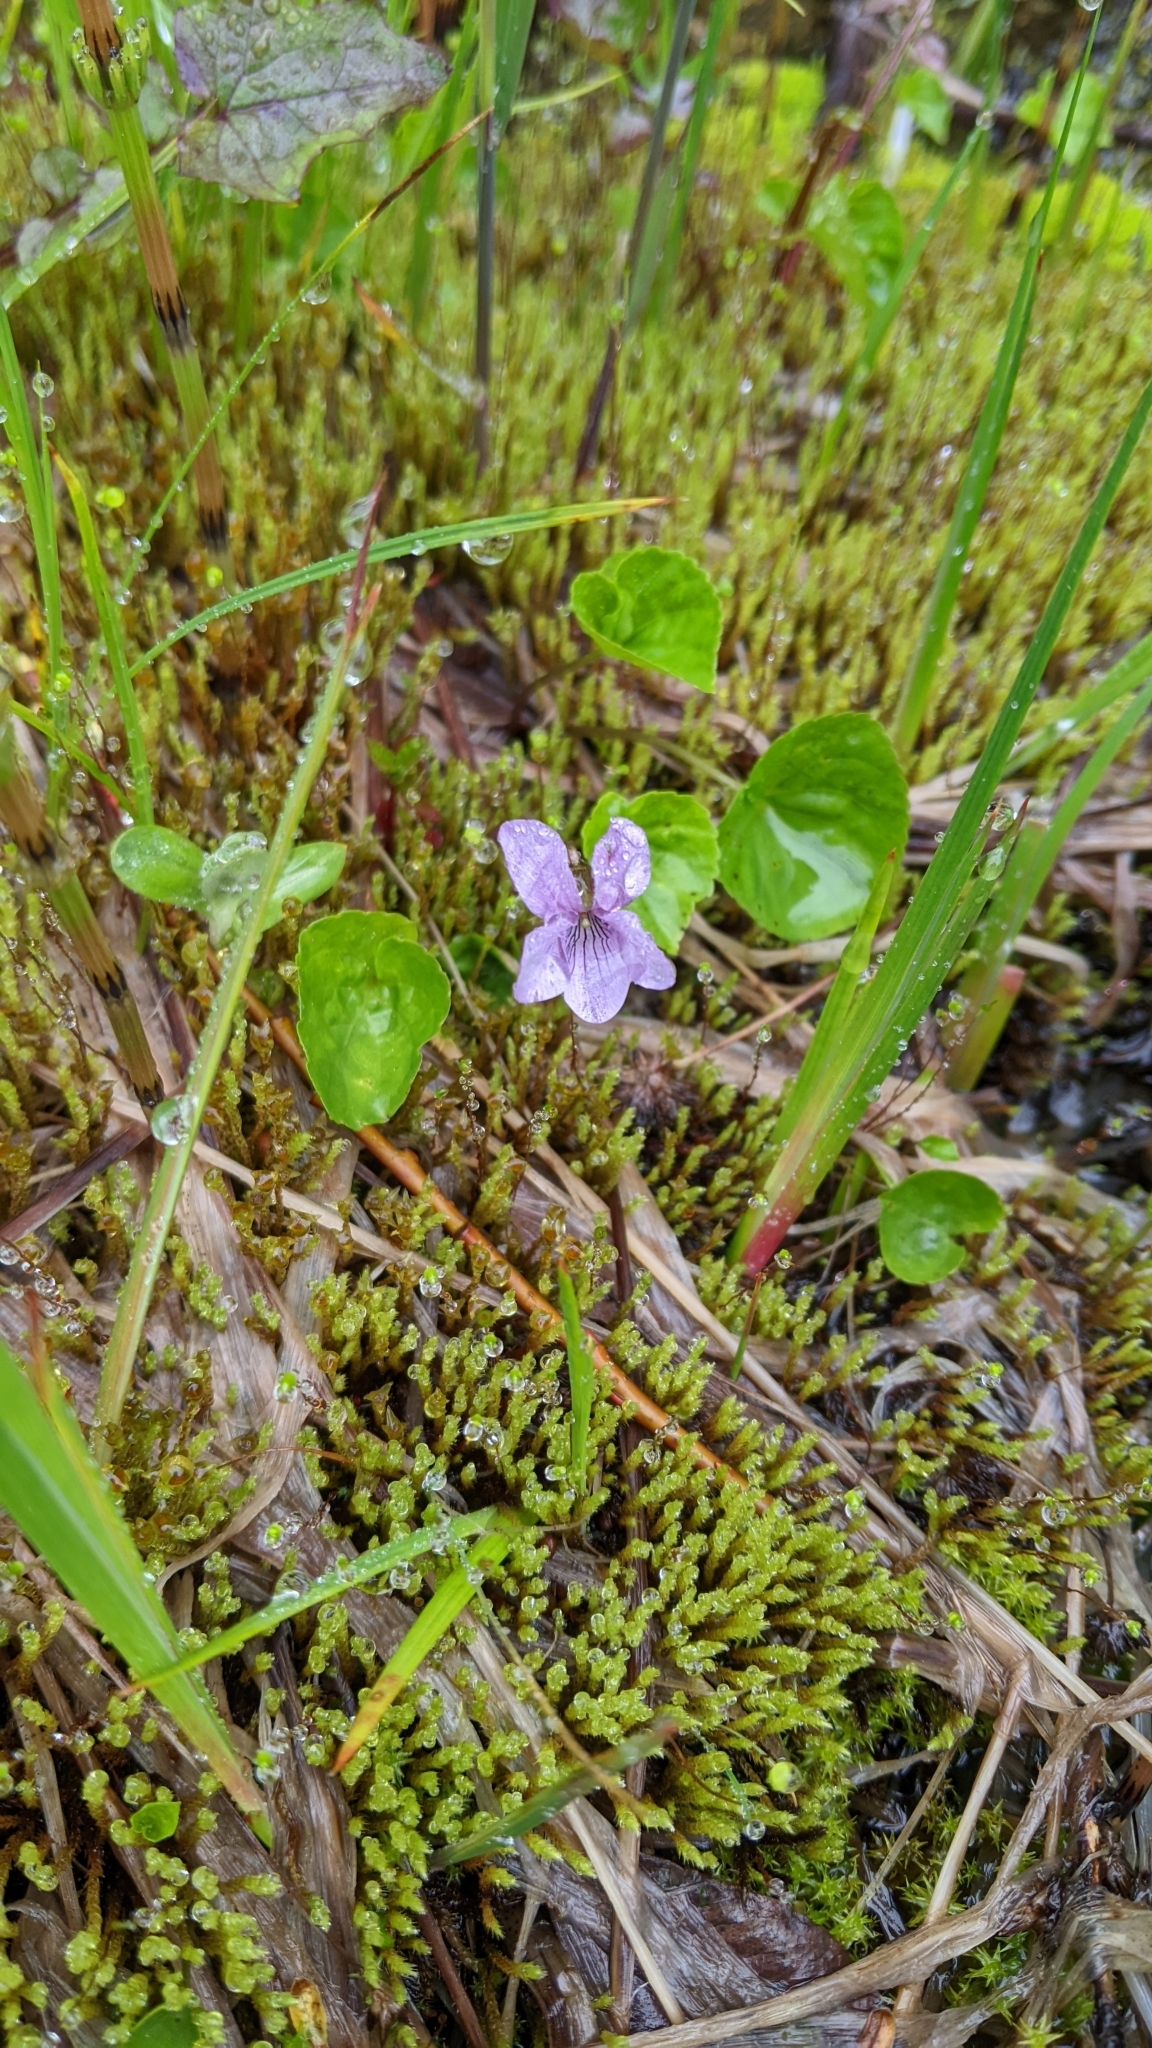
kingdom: Plantae
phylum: Tracheophyta
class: Magnoliopsida
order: Malpighiales
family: Violaceae
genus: Viola
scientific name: Viola palustris
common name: Marsh violet
